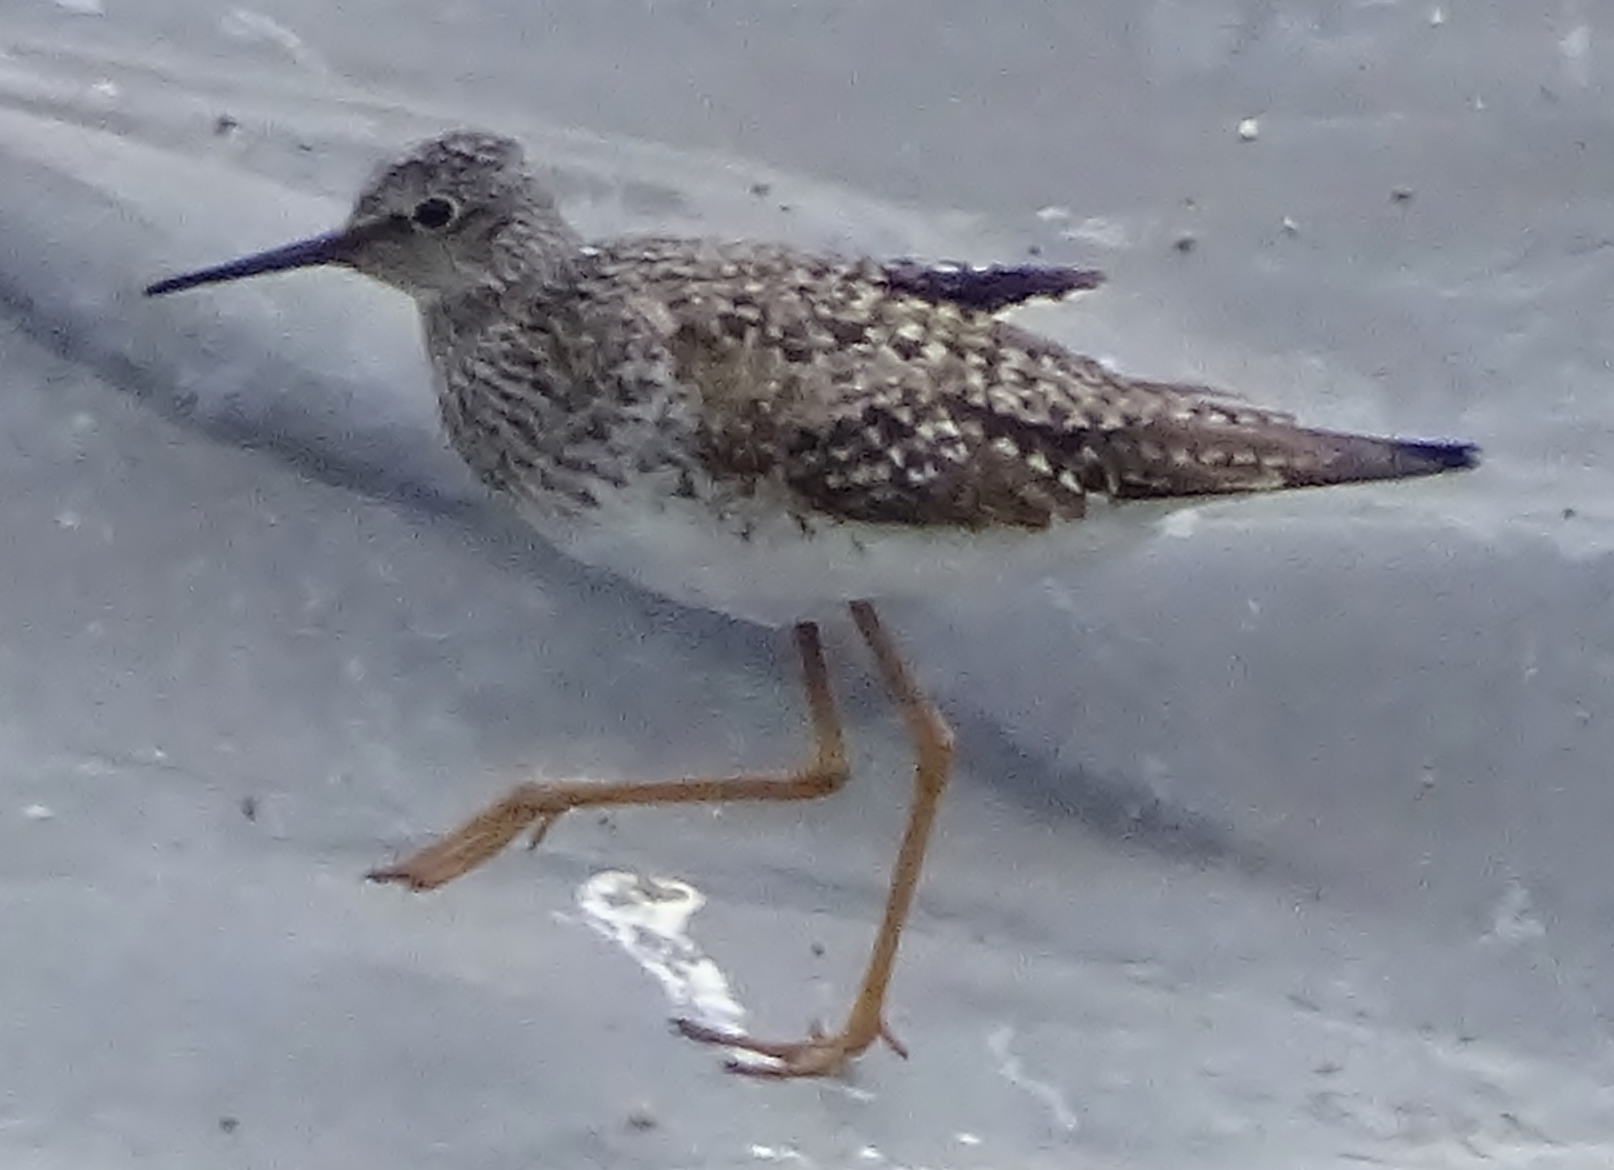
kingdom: Animalia
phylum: Chordata
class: Aves
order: Charadriiformes
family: Scolopacidae
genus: Tringa
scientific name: Tringa flavipes
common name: Lesser yellowlegs
